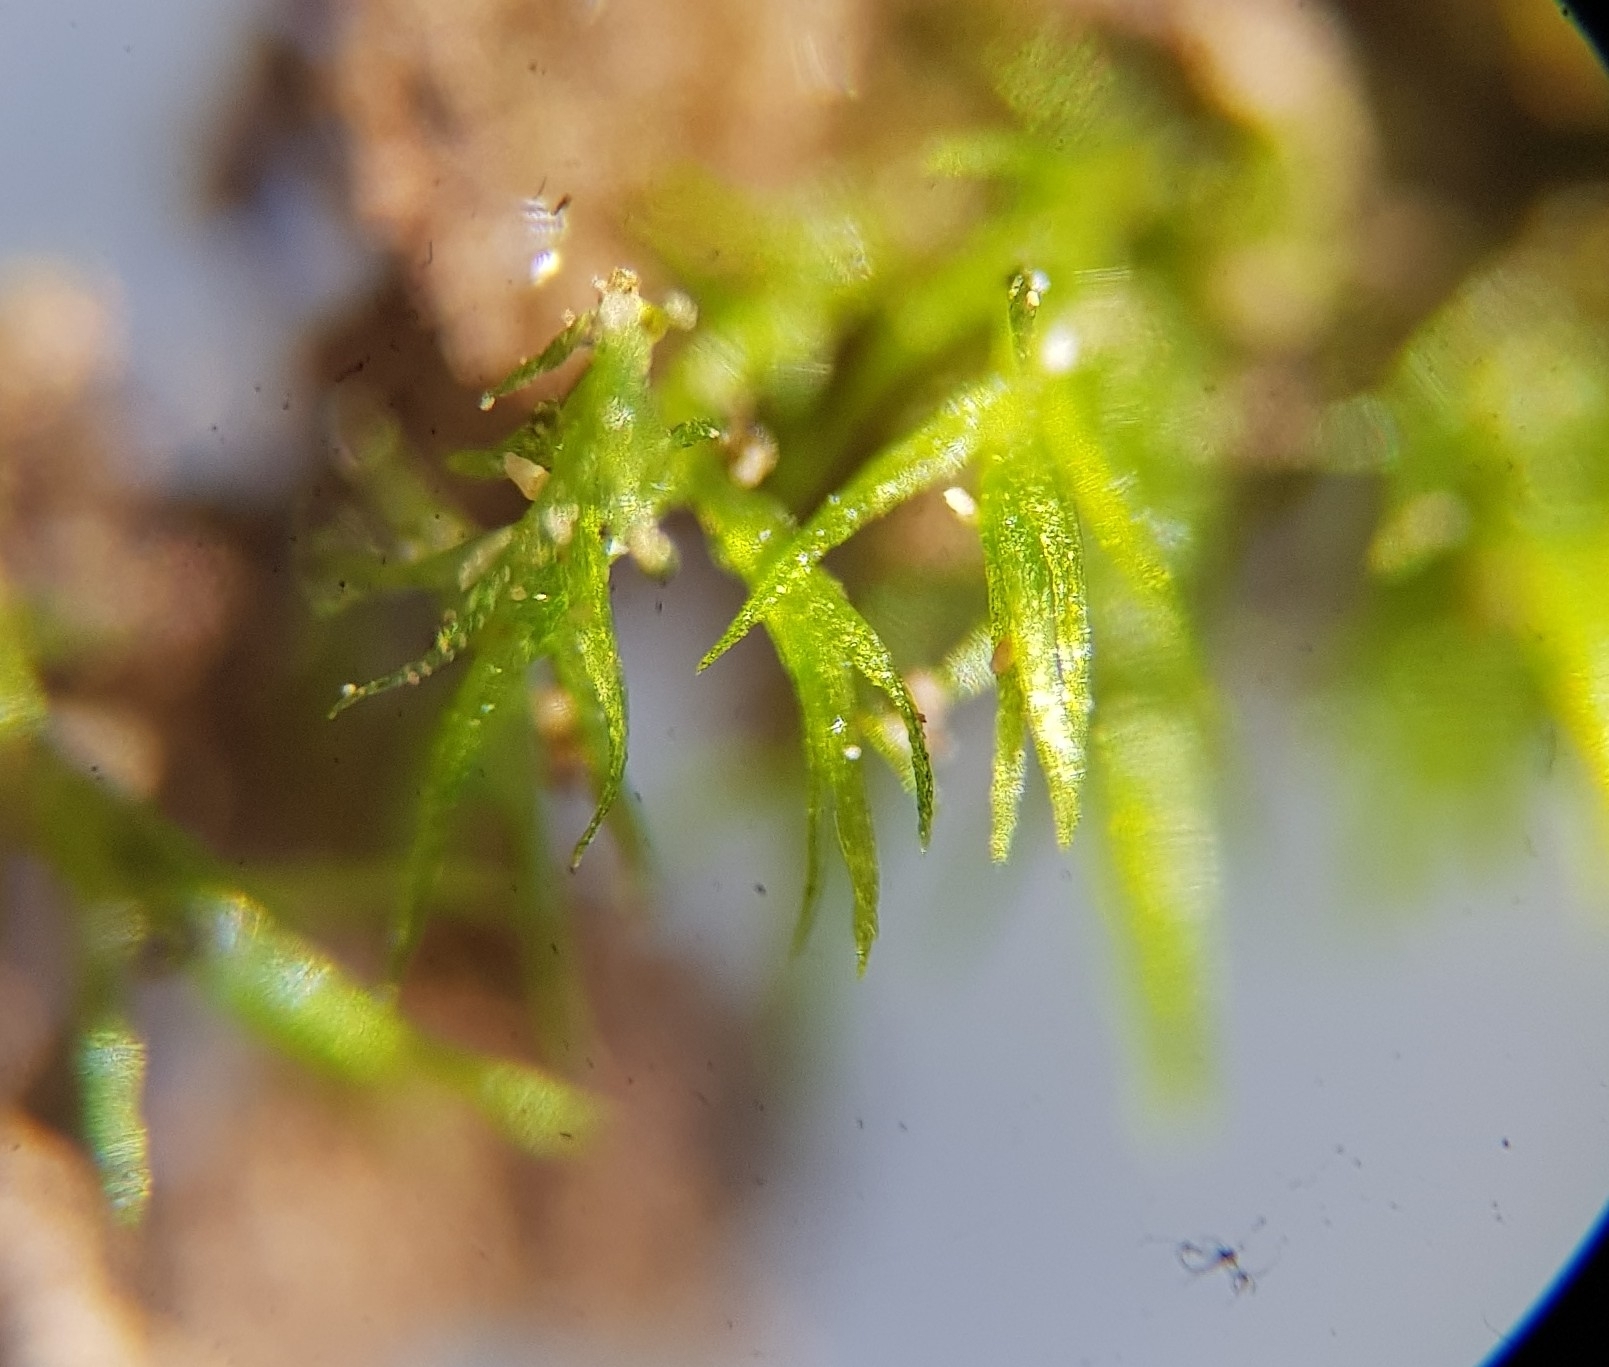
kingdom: Plantae
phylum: Bryophyta
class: Bryopsida
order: Dicranales
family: Dicranellaceae
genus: Dicranella
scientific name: Dicranella varia
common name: Variable forklet moss
